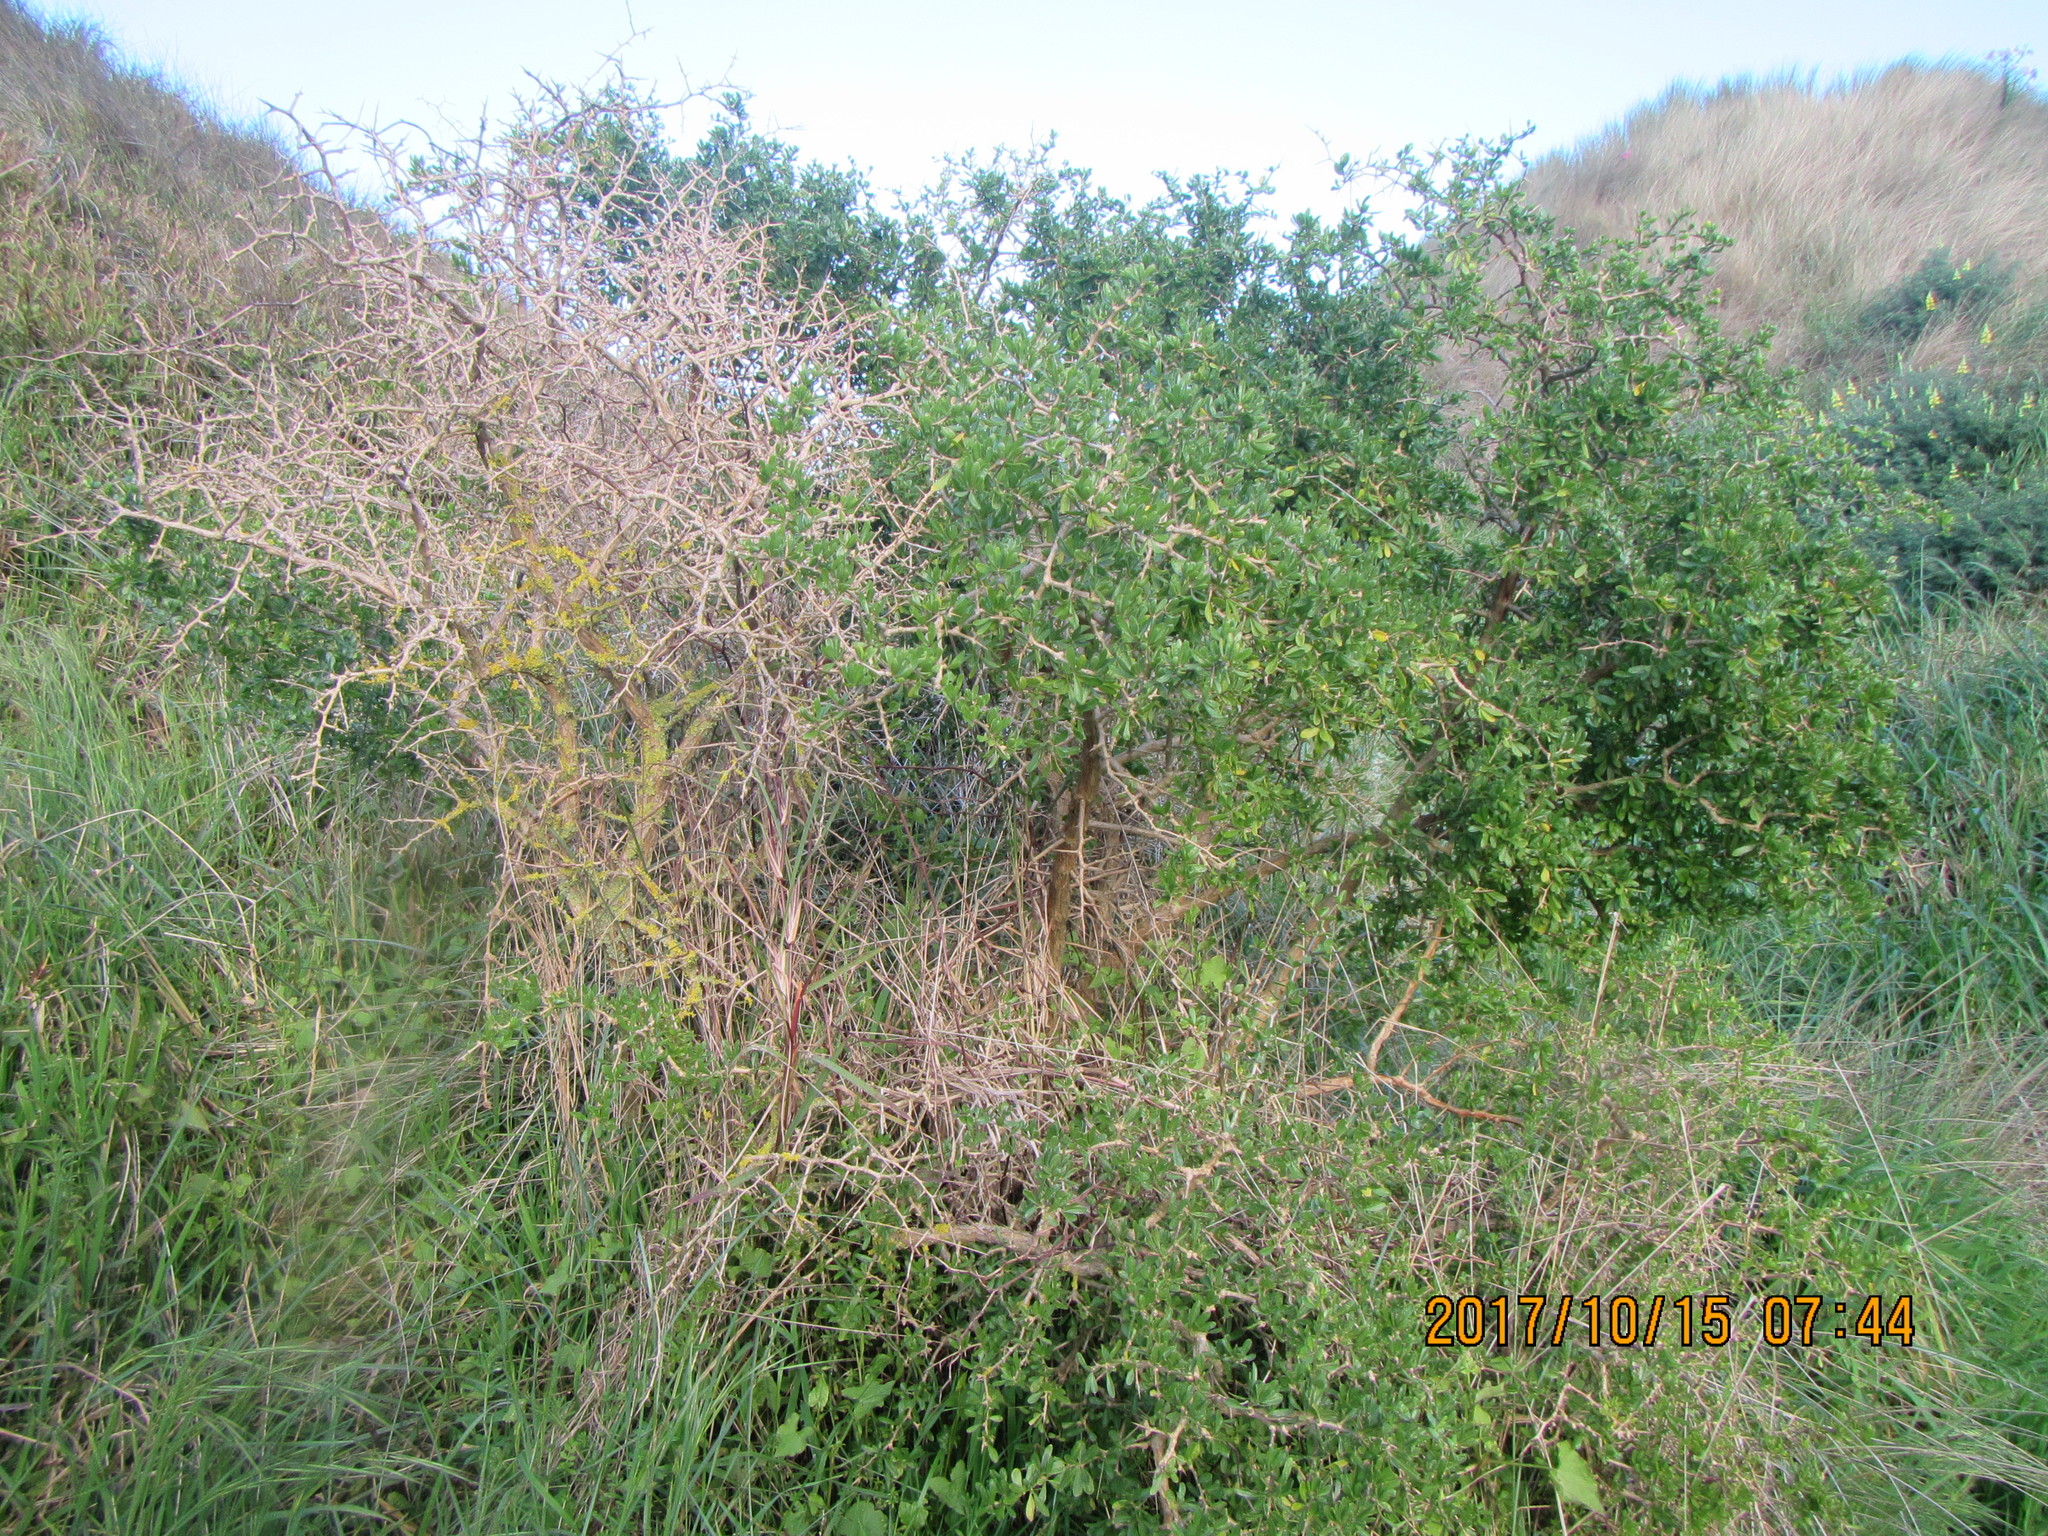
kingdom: Plantae
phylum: Tracheophyta
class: Magnoliopsida
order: Solanales
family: Solanaceae
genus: Lycium
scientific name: Lycium ferocissimum
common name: African boxthorn
